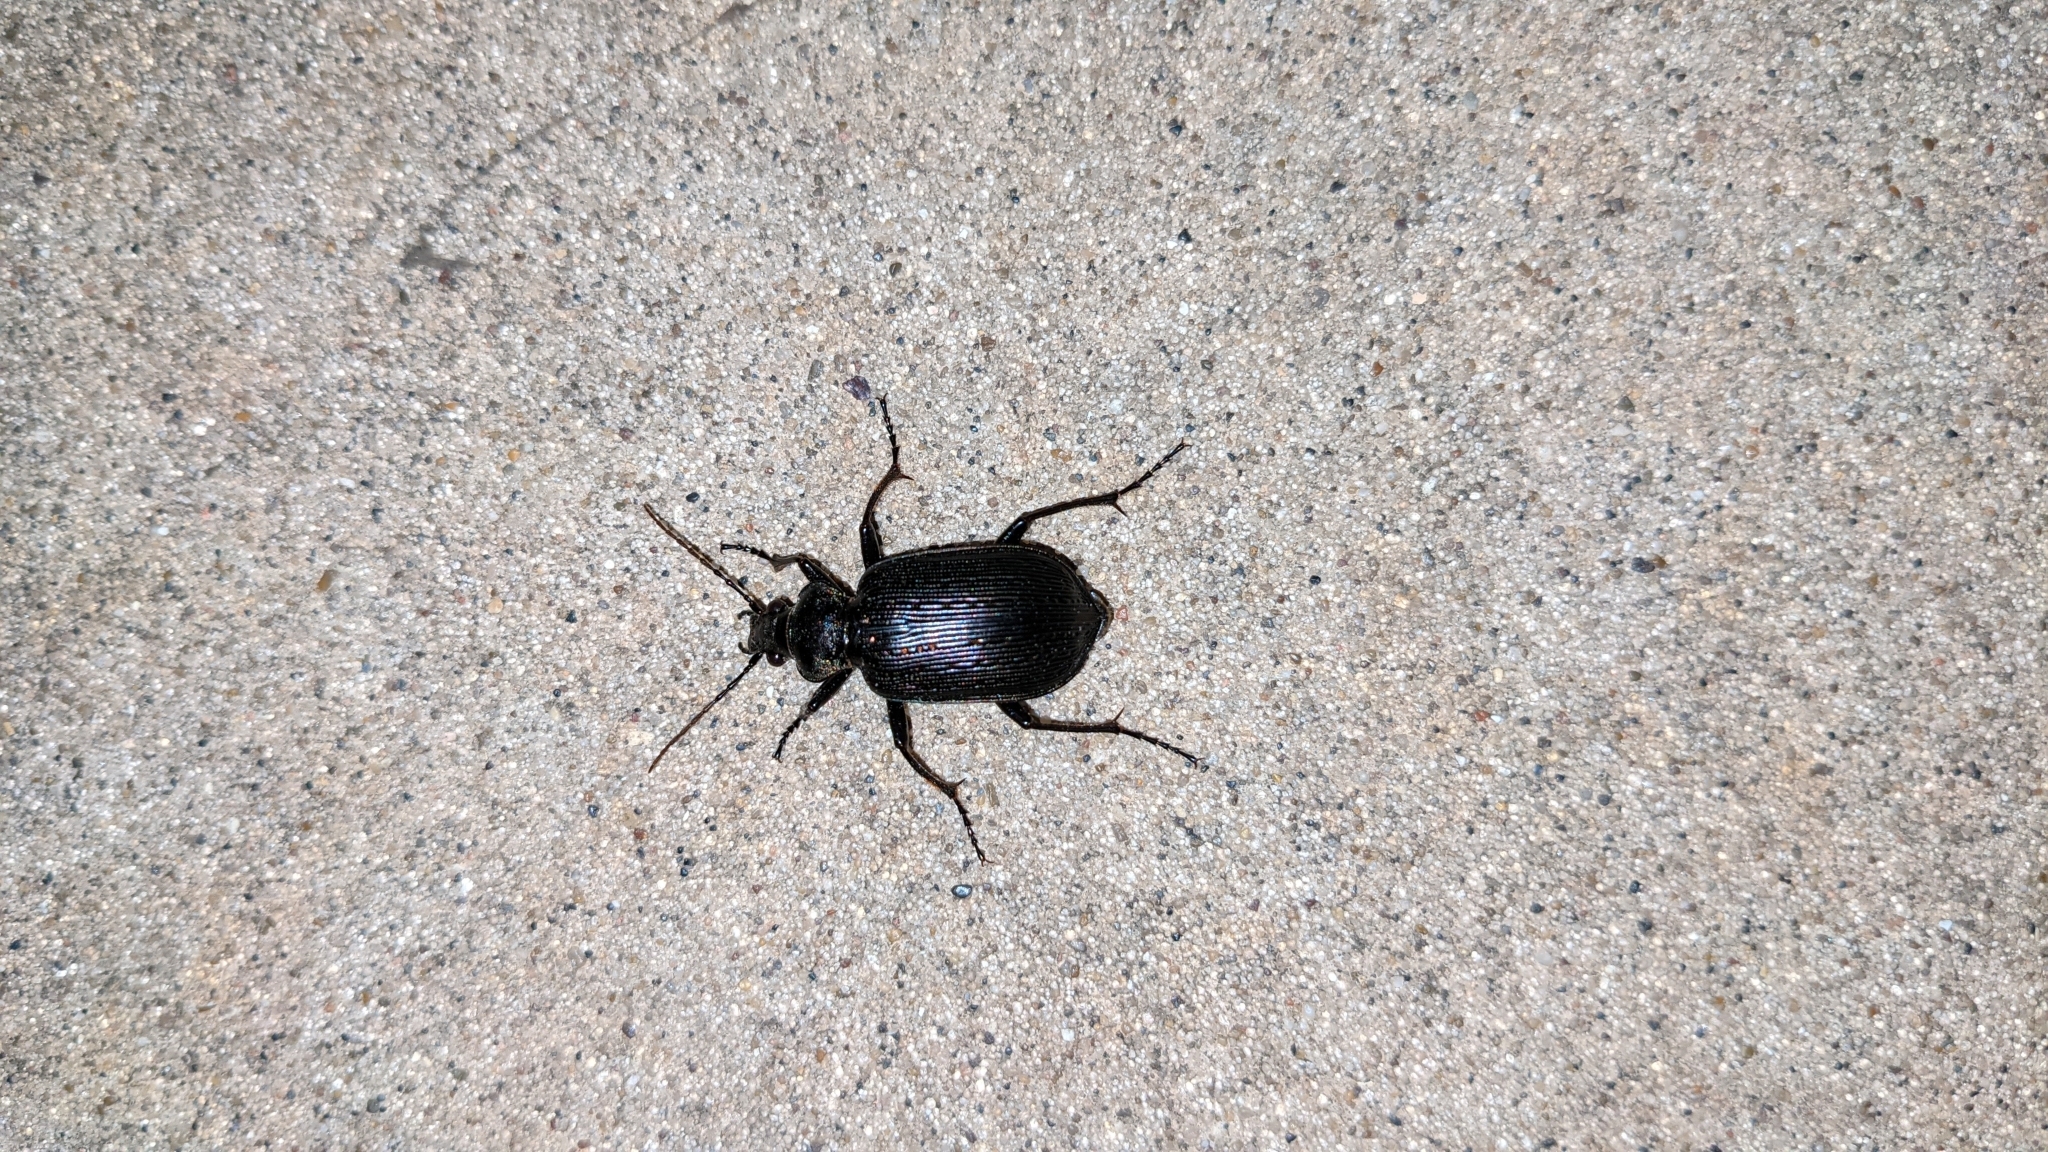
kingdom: Animalia
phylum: Arthropoda
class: Insecta
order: Coleoptera
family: Carabidae
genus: Calosoma
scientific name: Calosoma sayi
